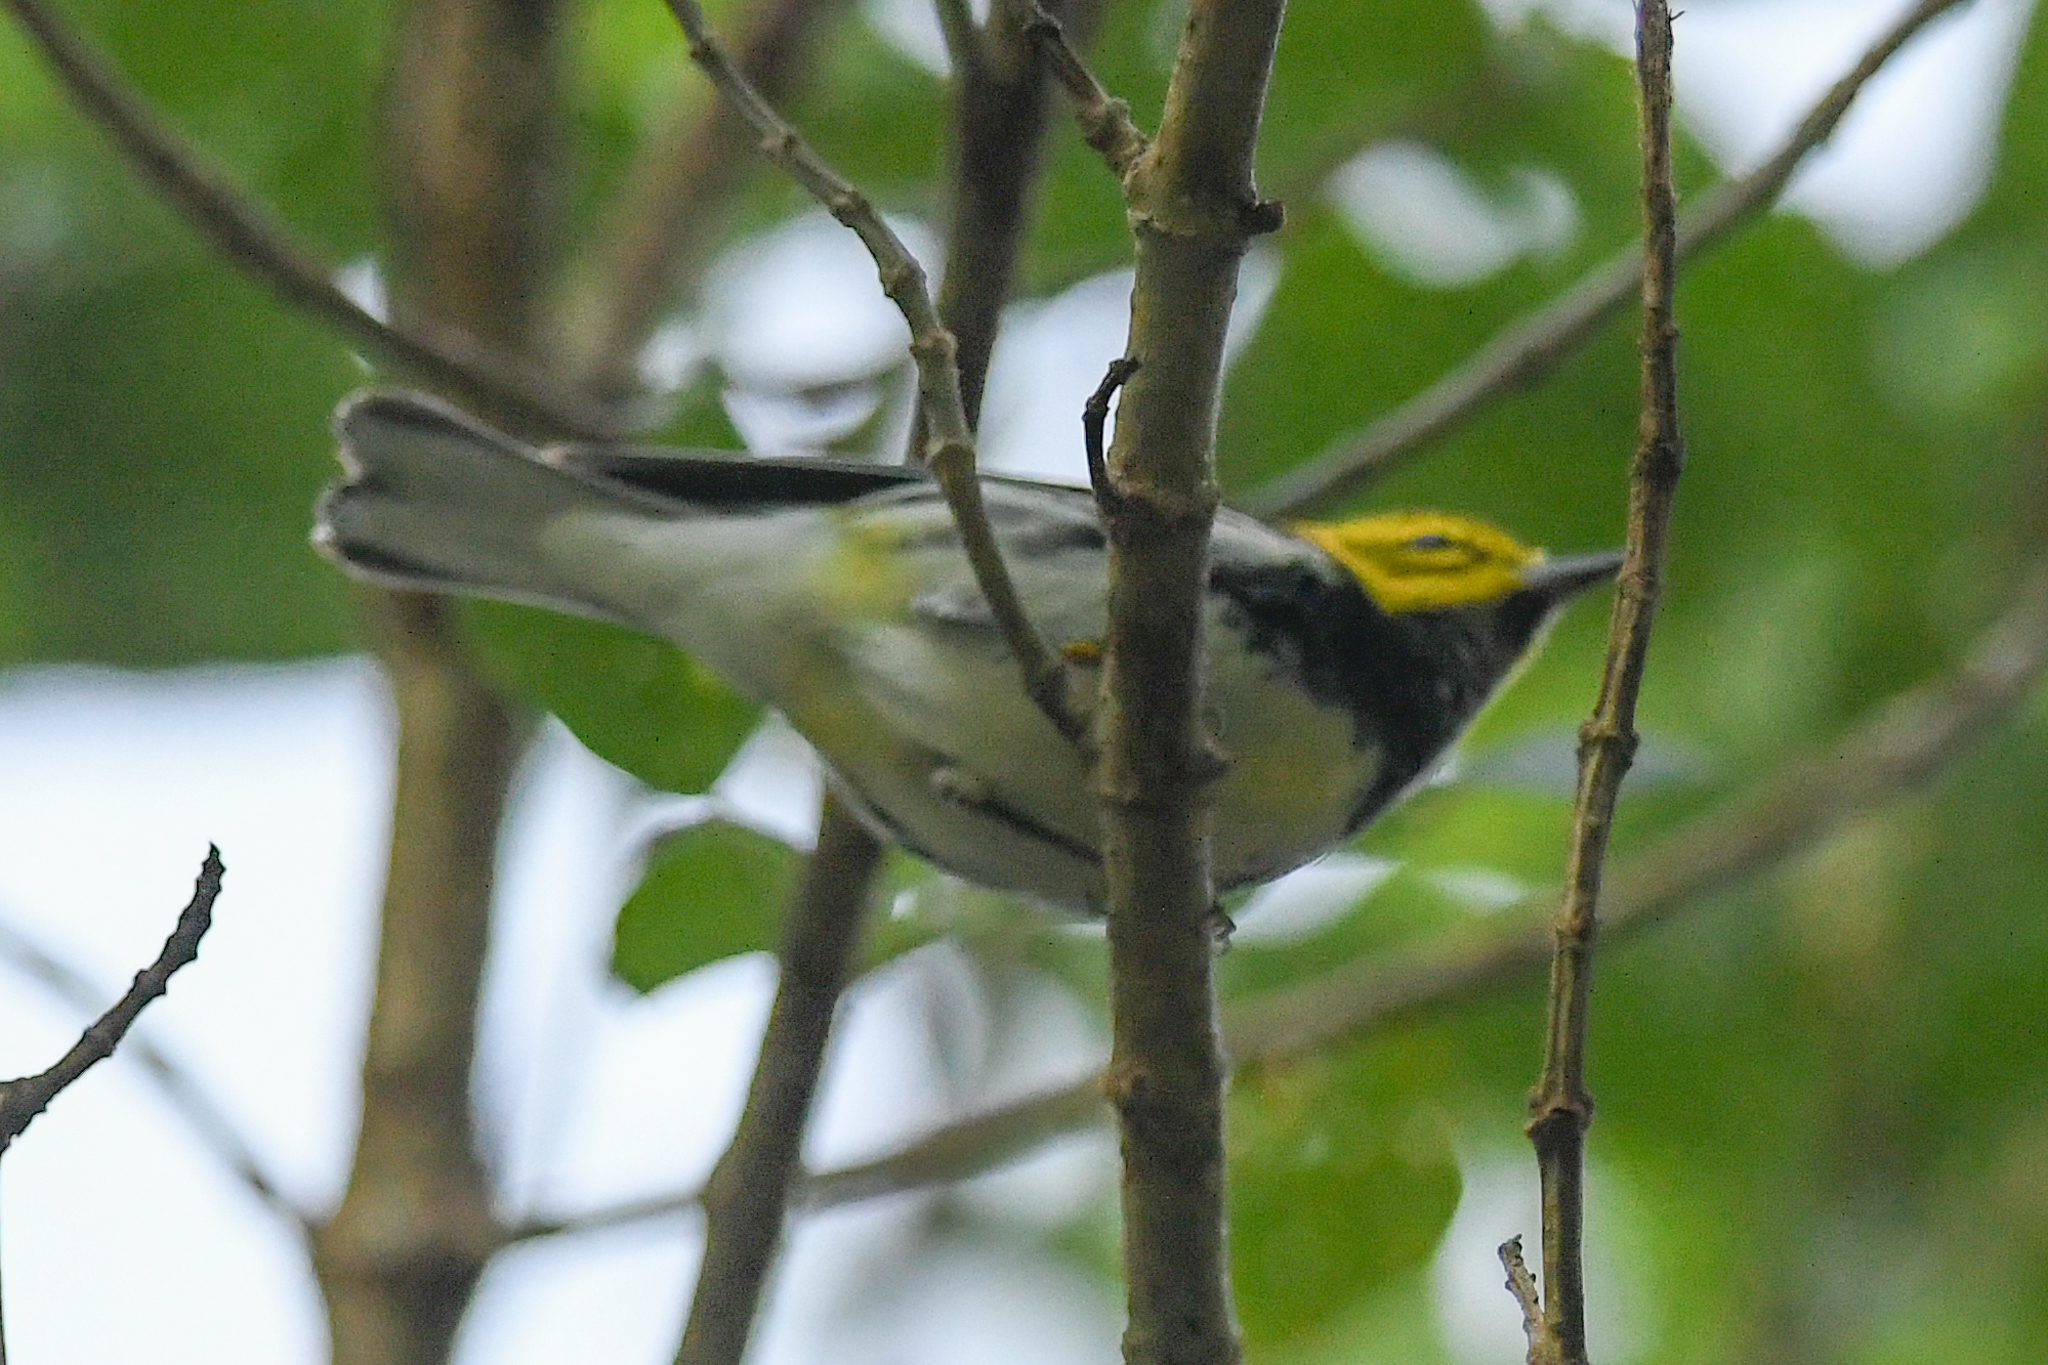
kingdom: Animalia
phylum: Chordata
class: Aves
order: Passeriformes
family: Parulidae
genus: Setophaga
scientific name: Setophaga virens
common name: Black-throated green warbler
